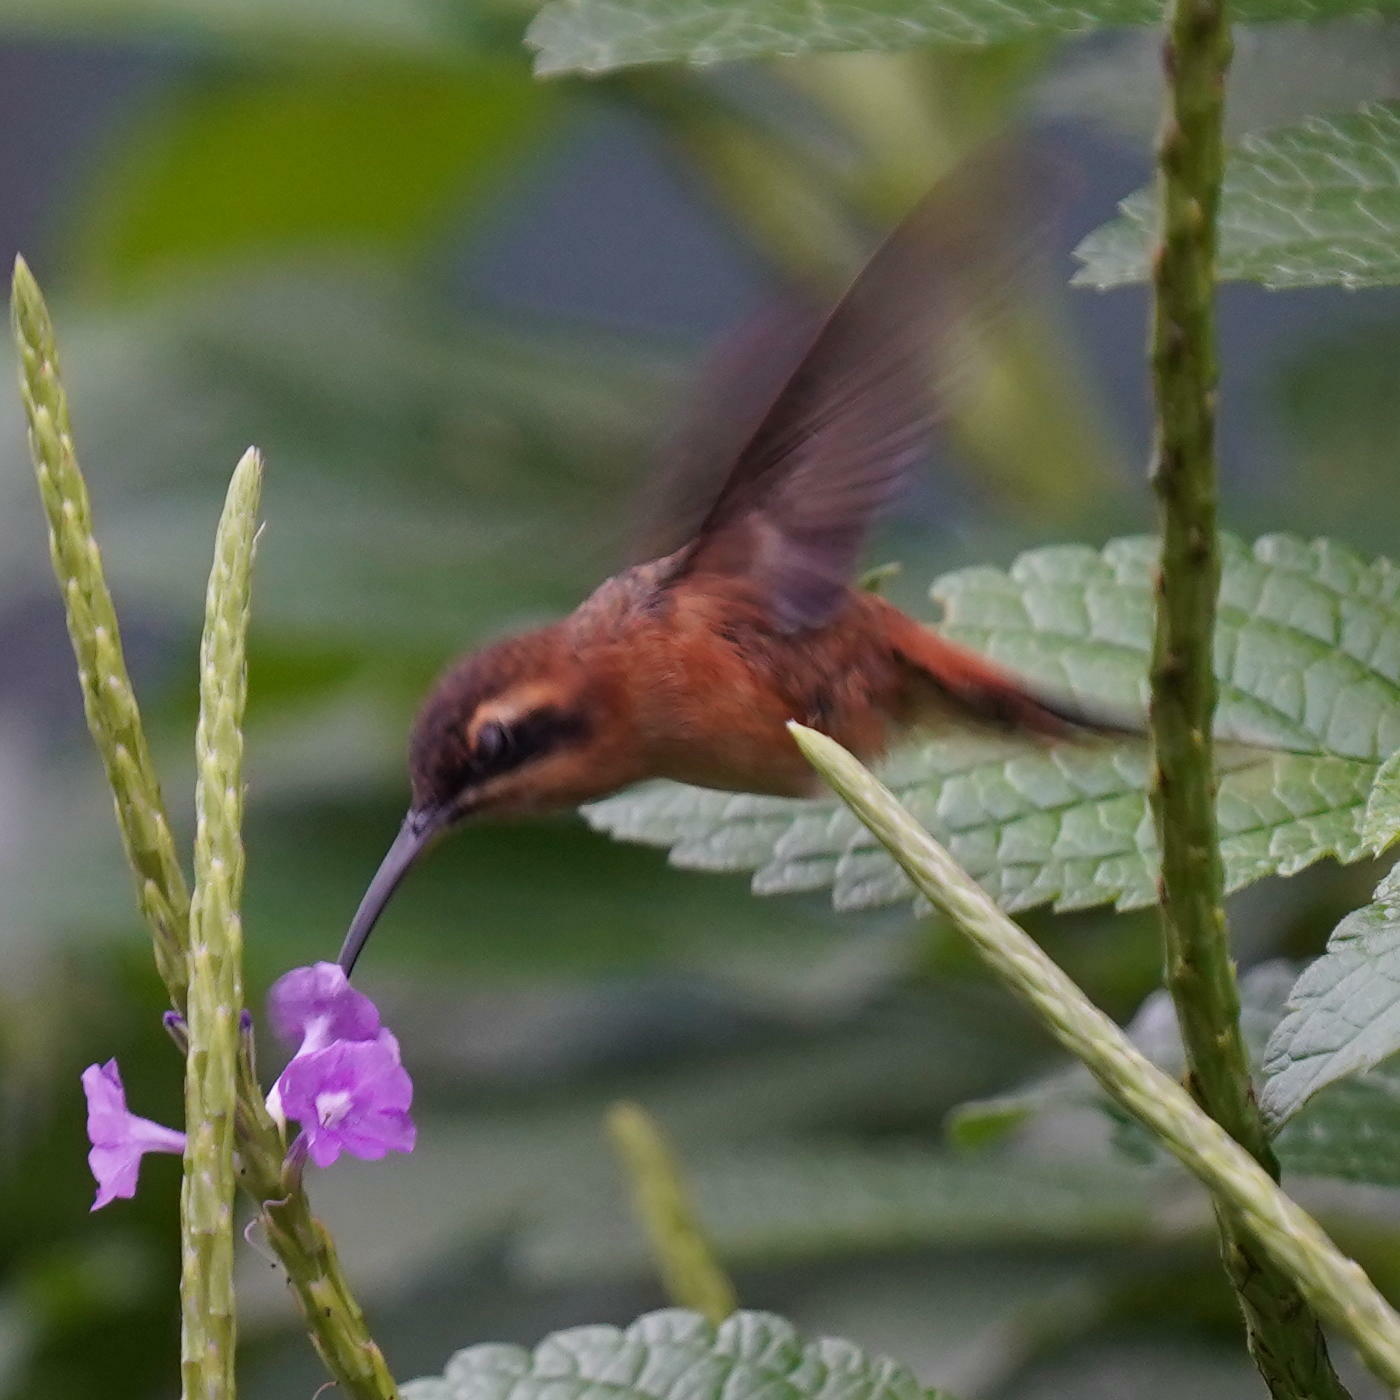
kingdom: Animalia
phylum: Chordata
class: Aves
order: Apodiformes
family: Trochilidae
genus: Phaethornis
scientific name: Phaethornis striigularis
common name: Stripe-throated hermit
